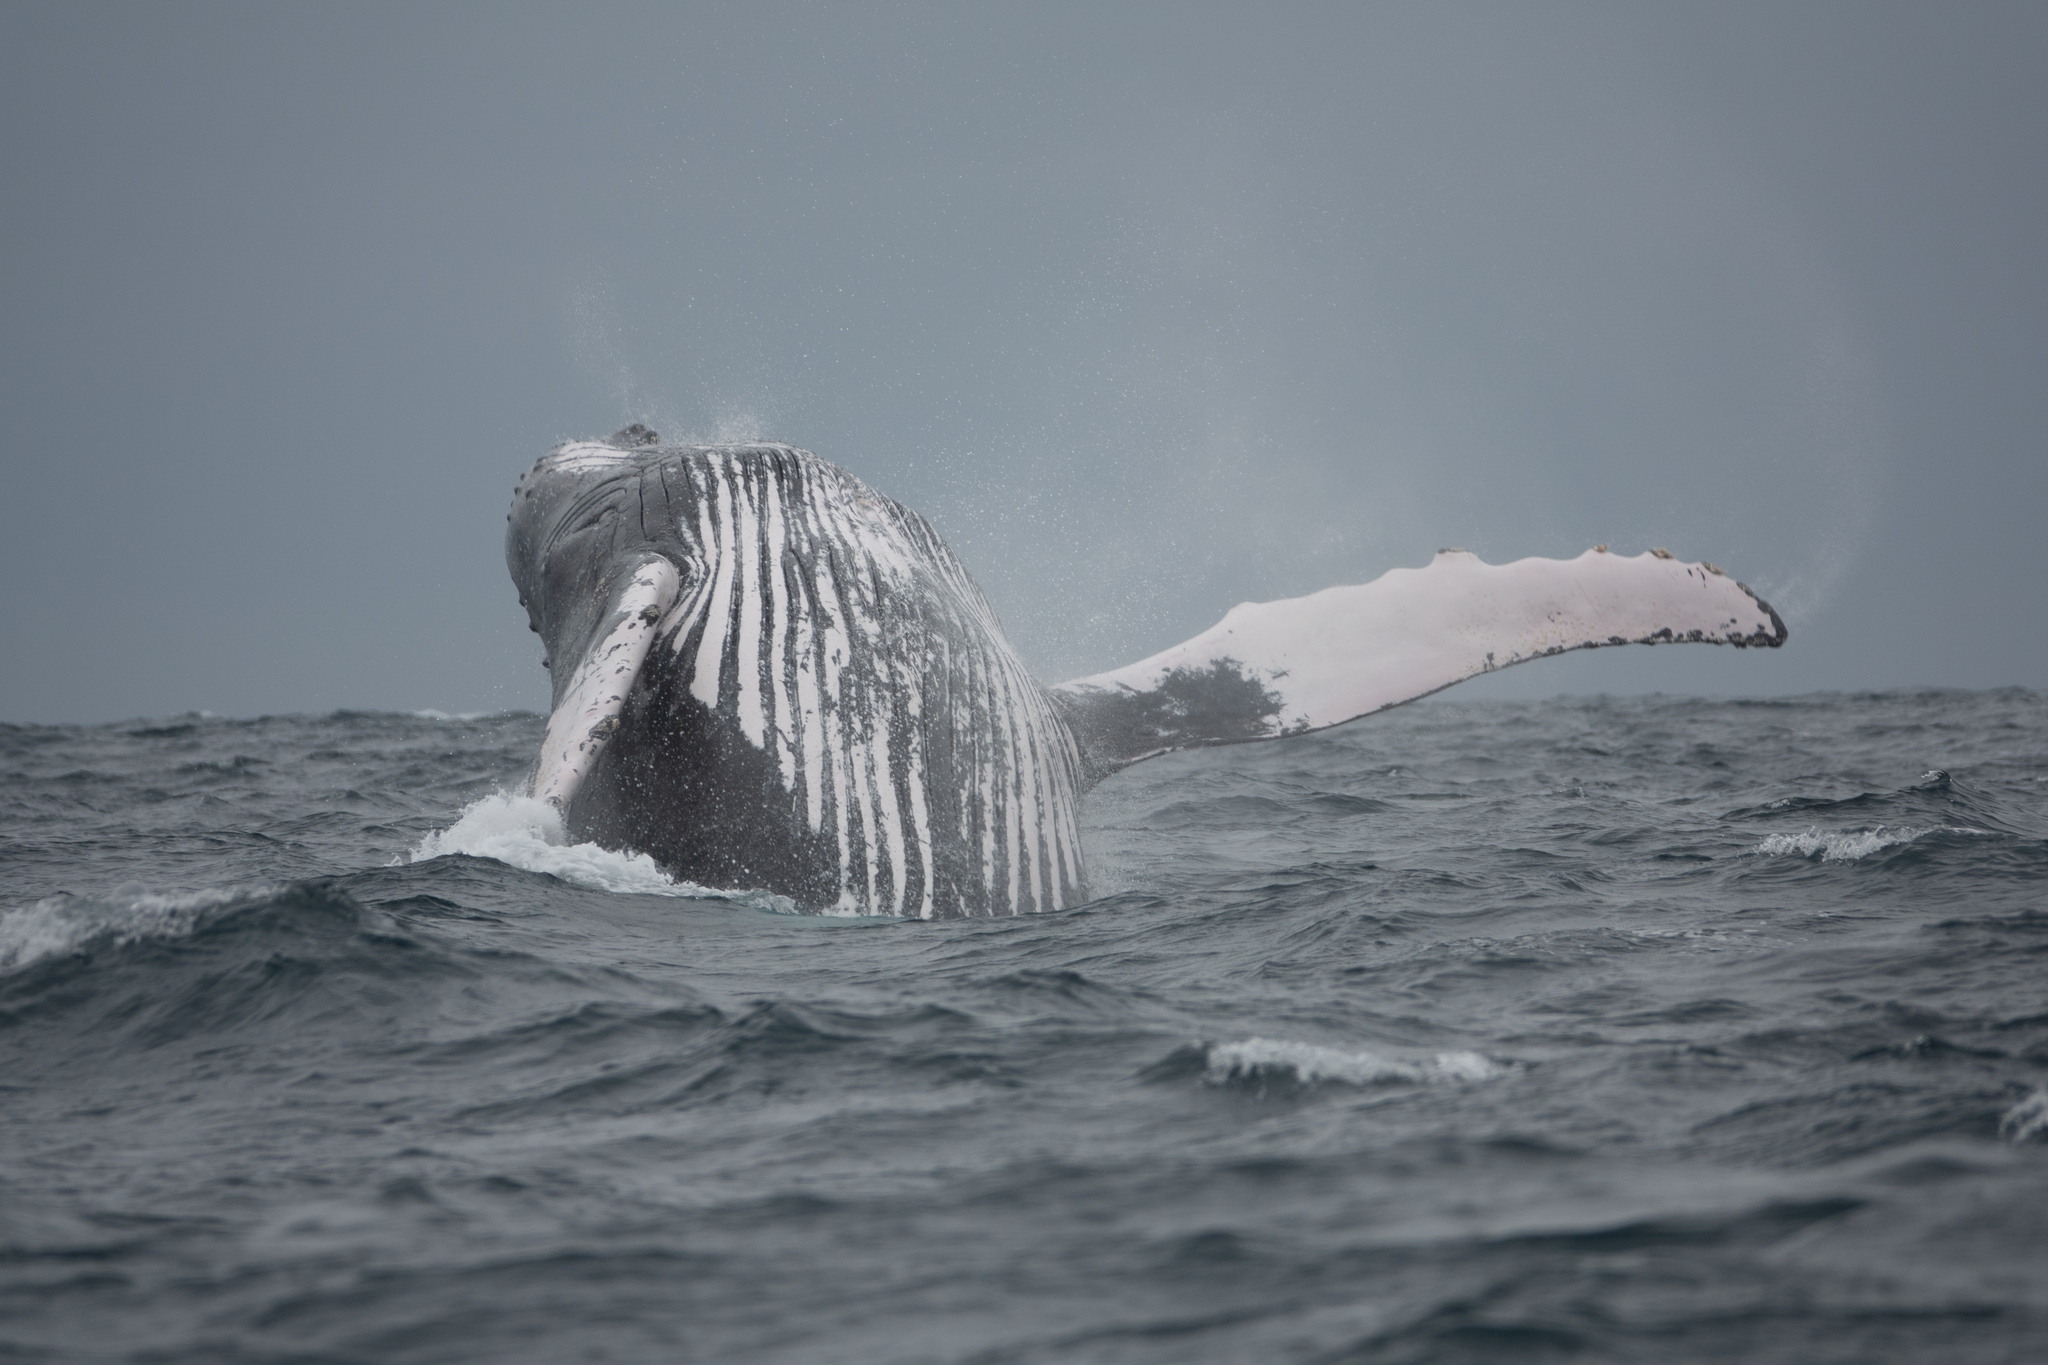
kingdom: Animalia
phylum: Chordata
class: Mammalia
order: Cetacea
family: Balaenopteridae
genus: Megaptera
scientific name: Megaptera novaeangliae
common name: Humpback whale
